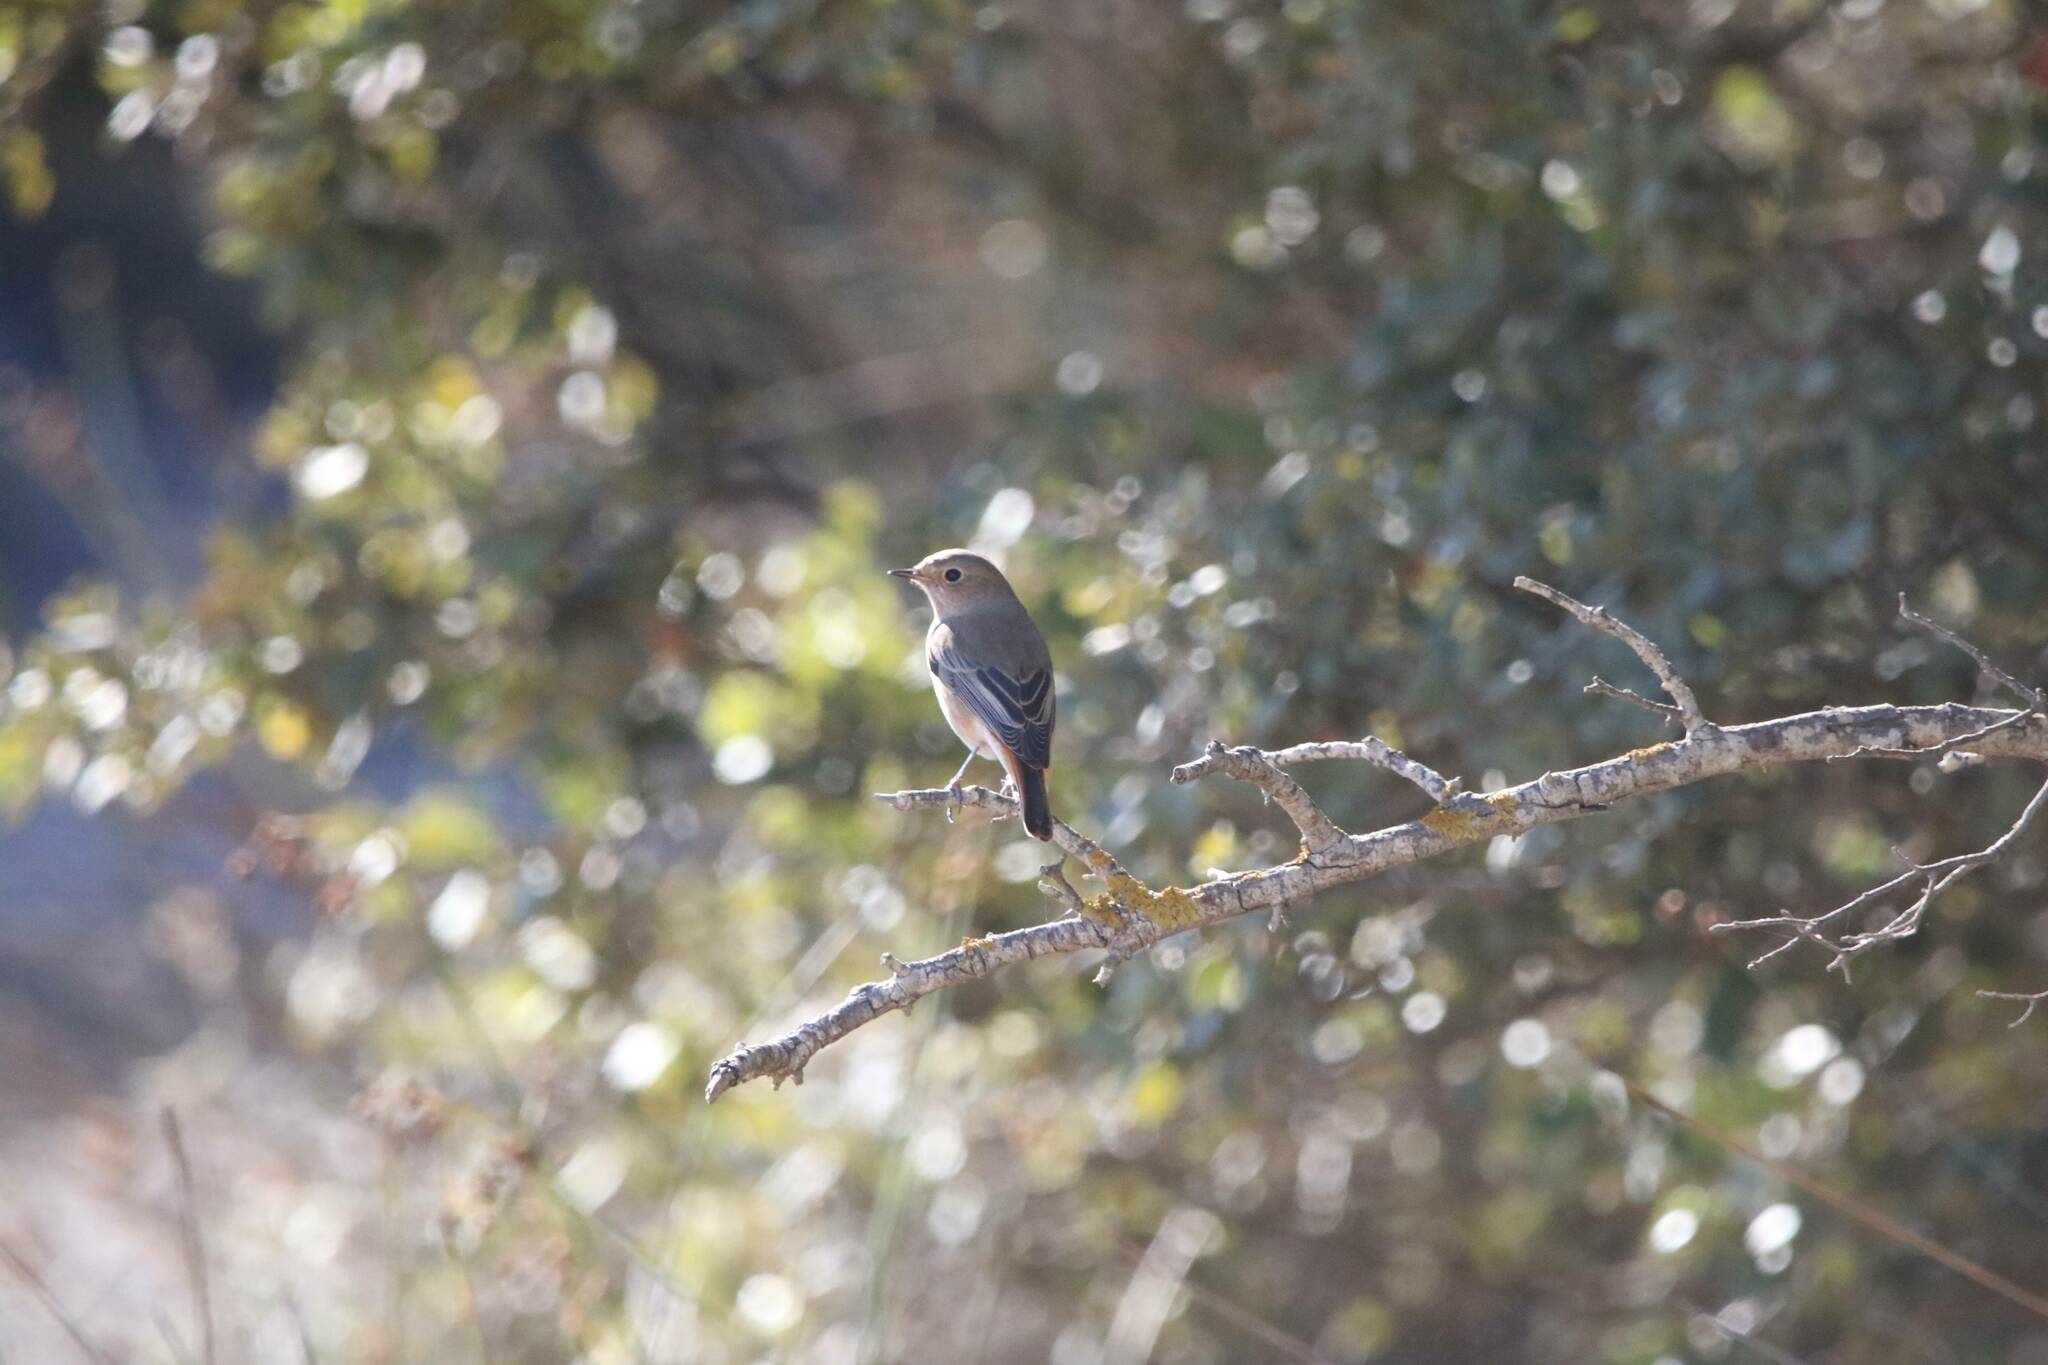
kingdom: Animalia
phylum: Chordata
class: Aves
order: Passeriformes
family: Muscicapidae
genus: Phoenicurus
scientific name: Phoenicurus ochruros
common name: Black redstart
